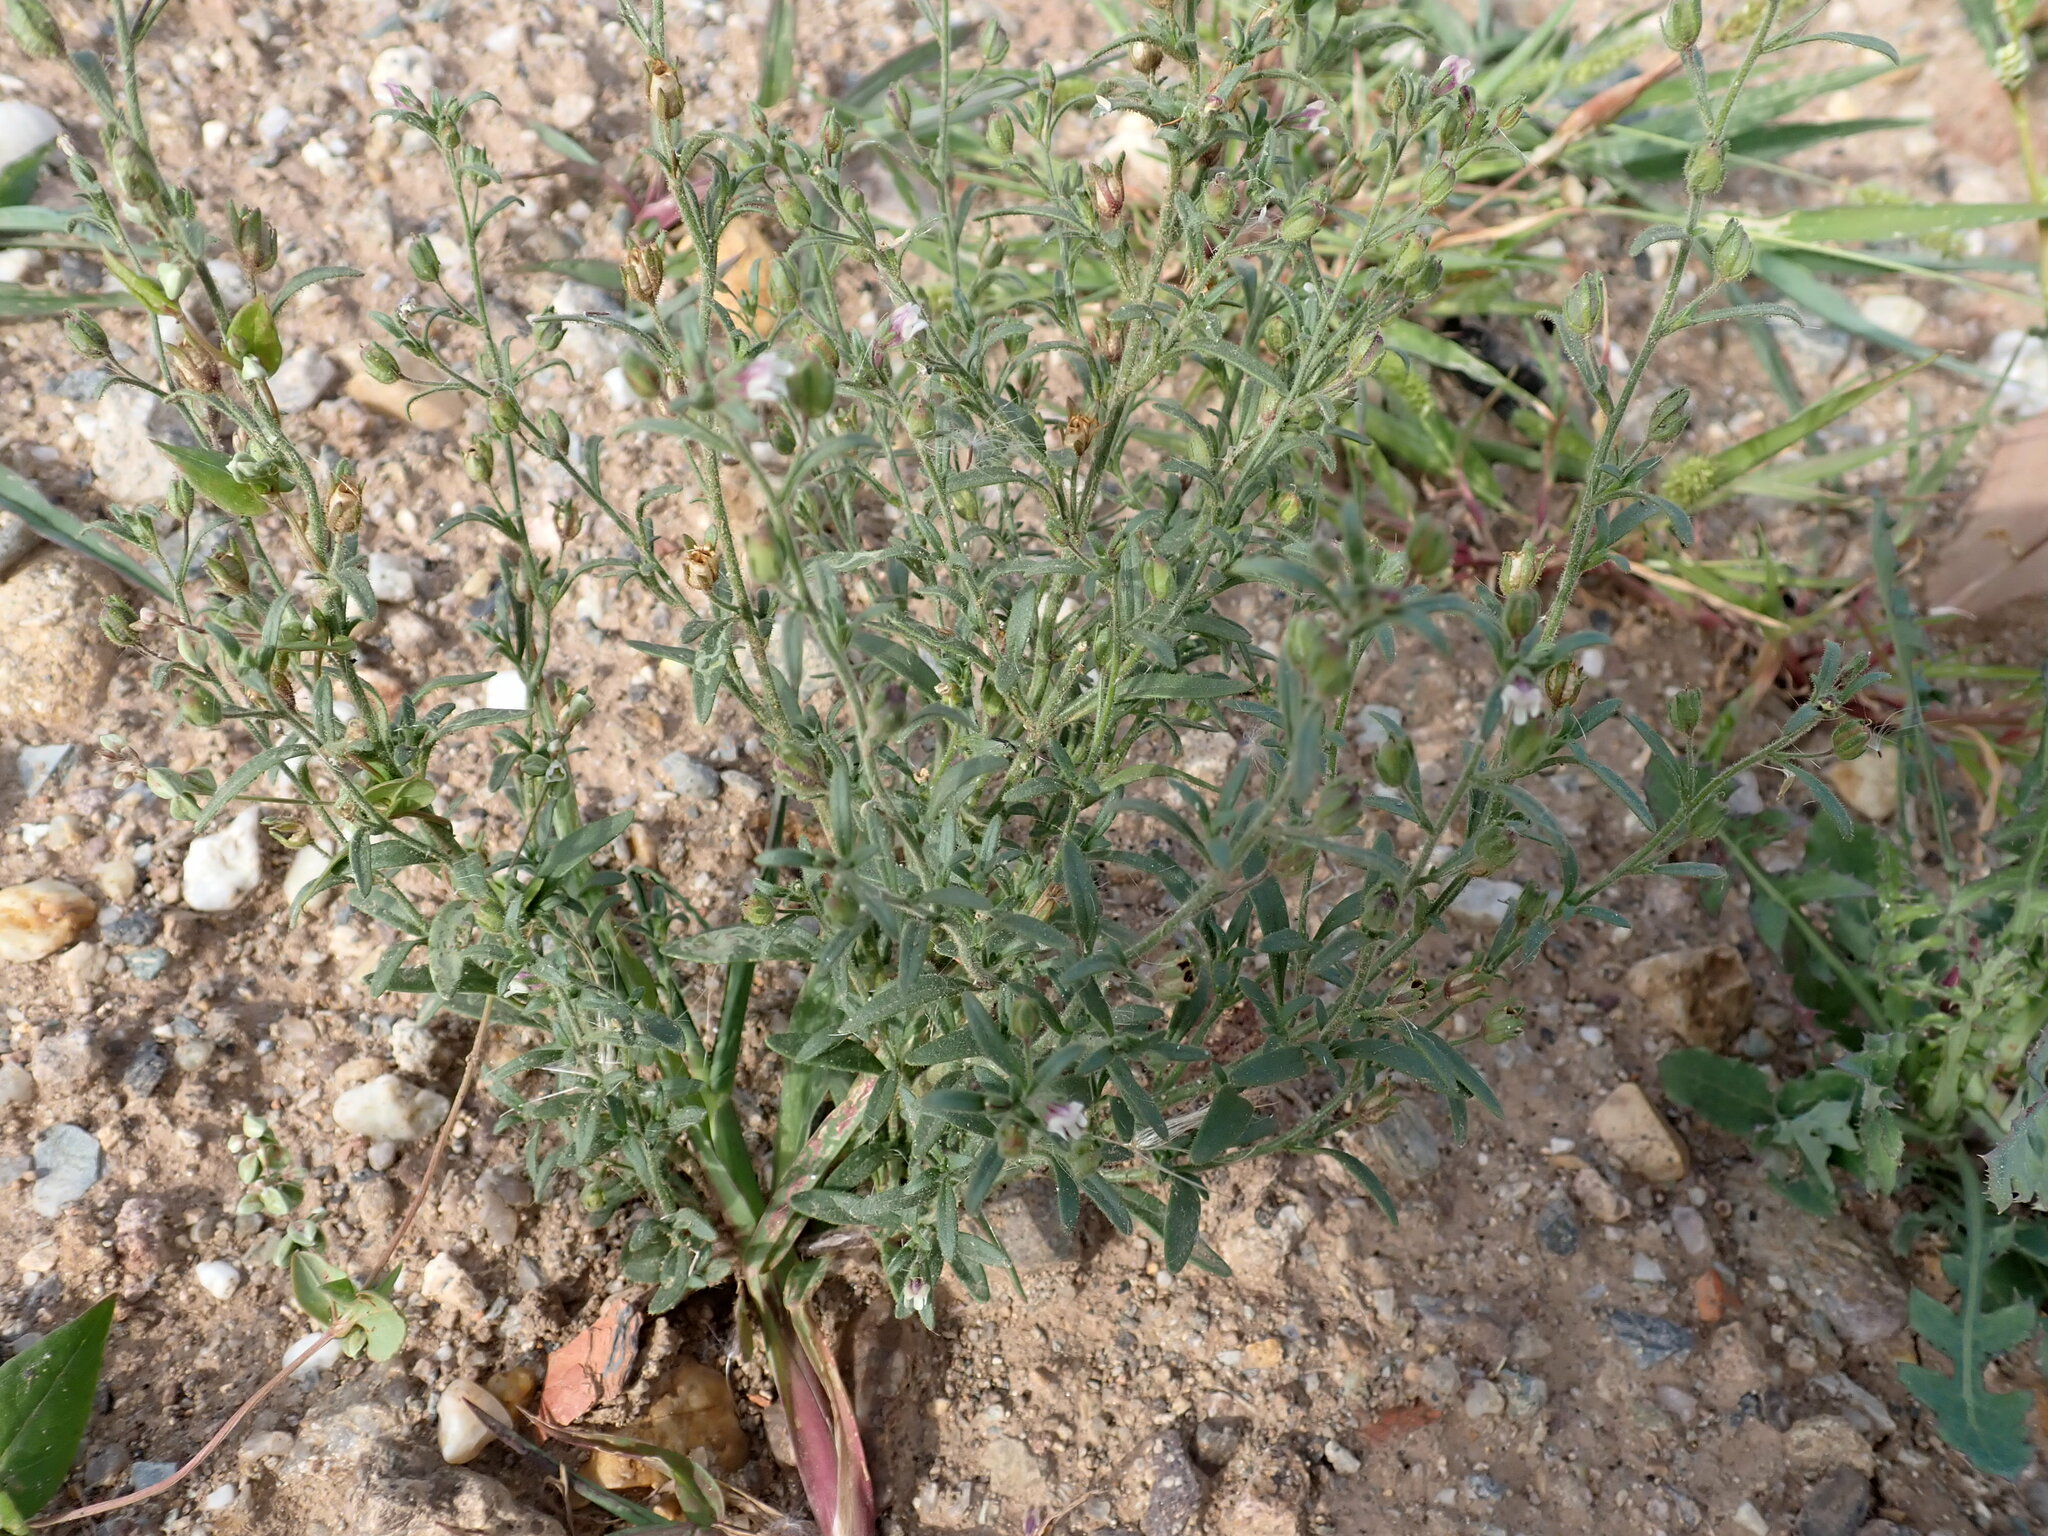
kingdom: Plantae
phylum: Tracheophyta
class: Magnoliopsida
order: Lamiales
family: Plantaginaceae
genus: Chaenorhinum
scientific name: Chaenorhinum minus
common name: Dwarf snapdragon
